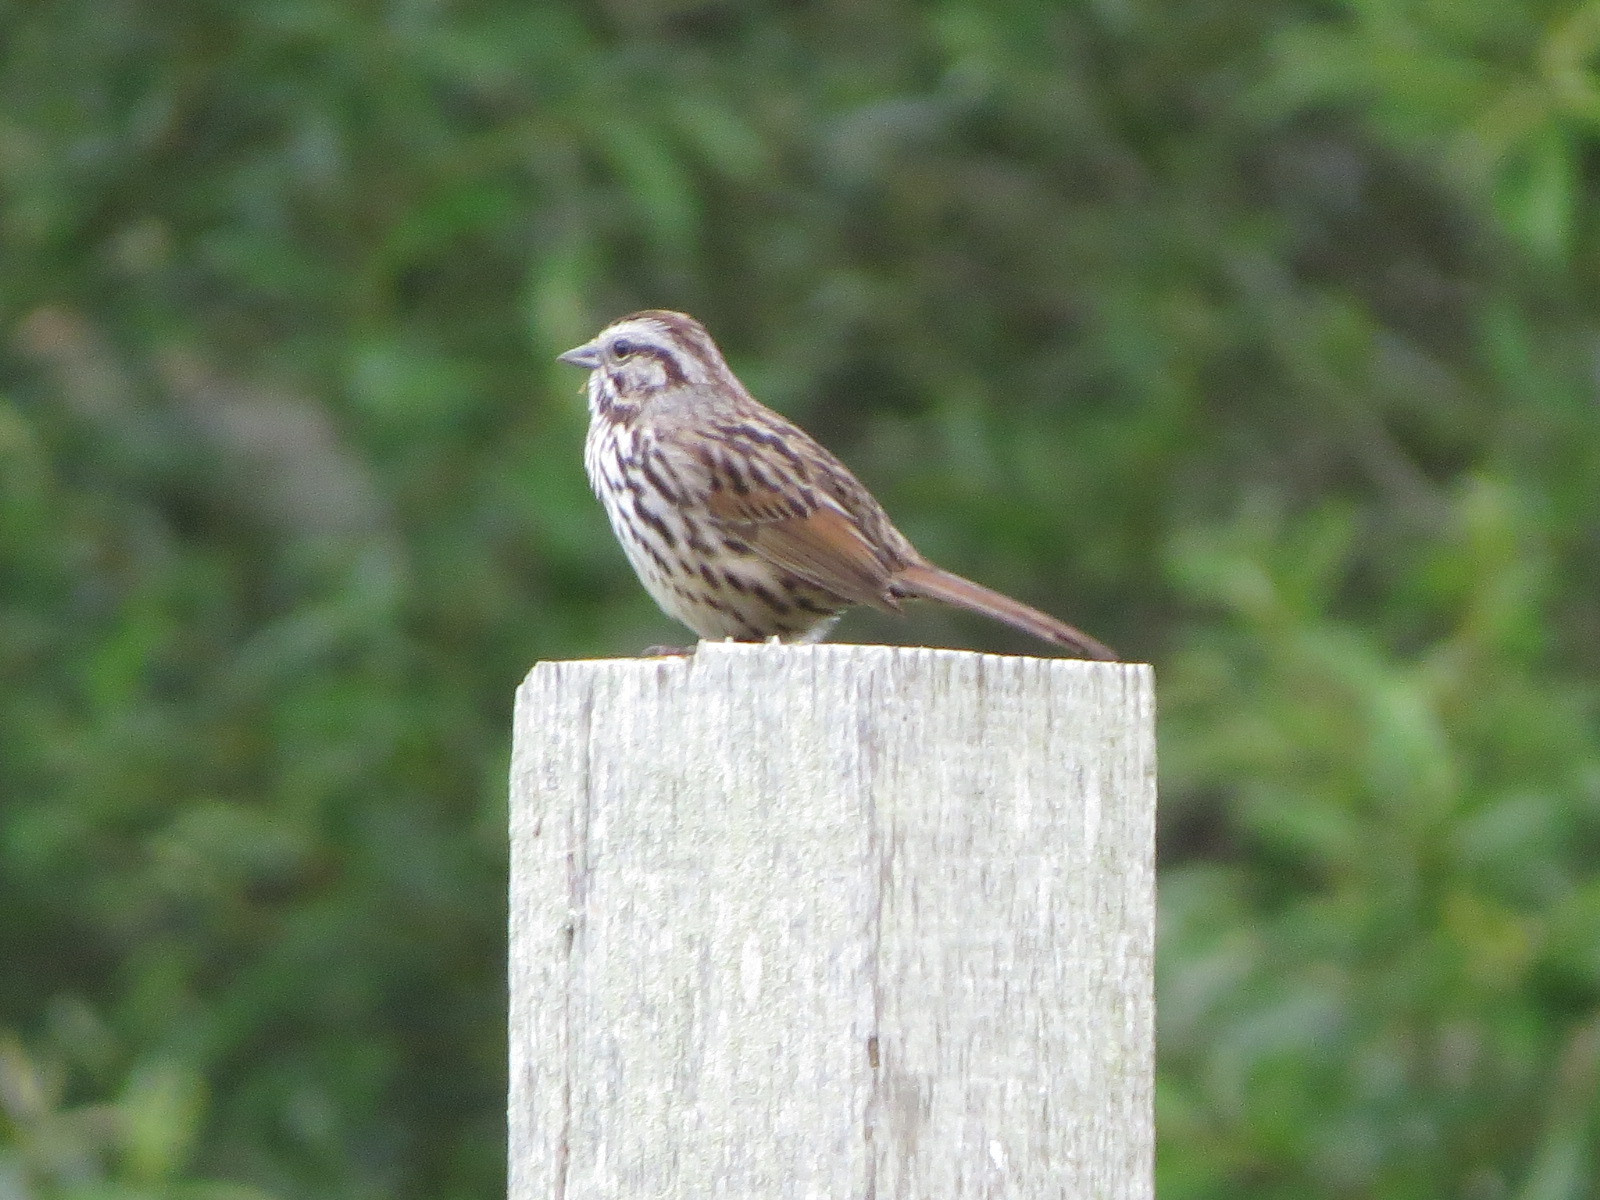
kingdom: Animalia
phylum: Chordata
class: Aves
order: Passeriformes
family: Passerellidae
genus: Melospiza
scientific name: Melospiza melodia
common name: Song sparrow
